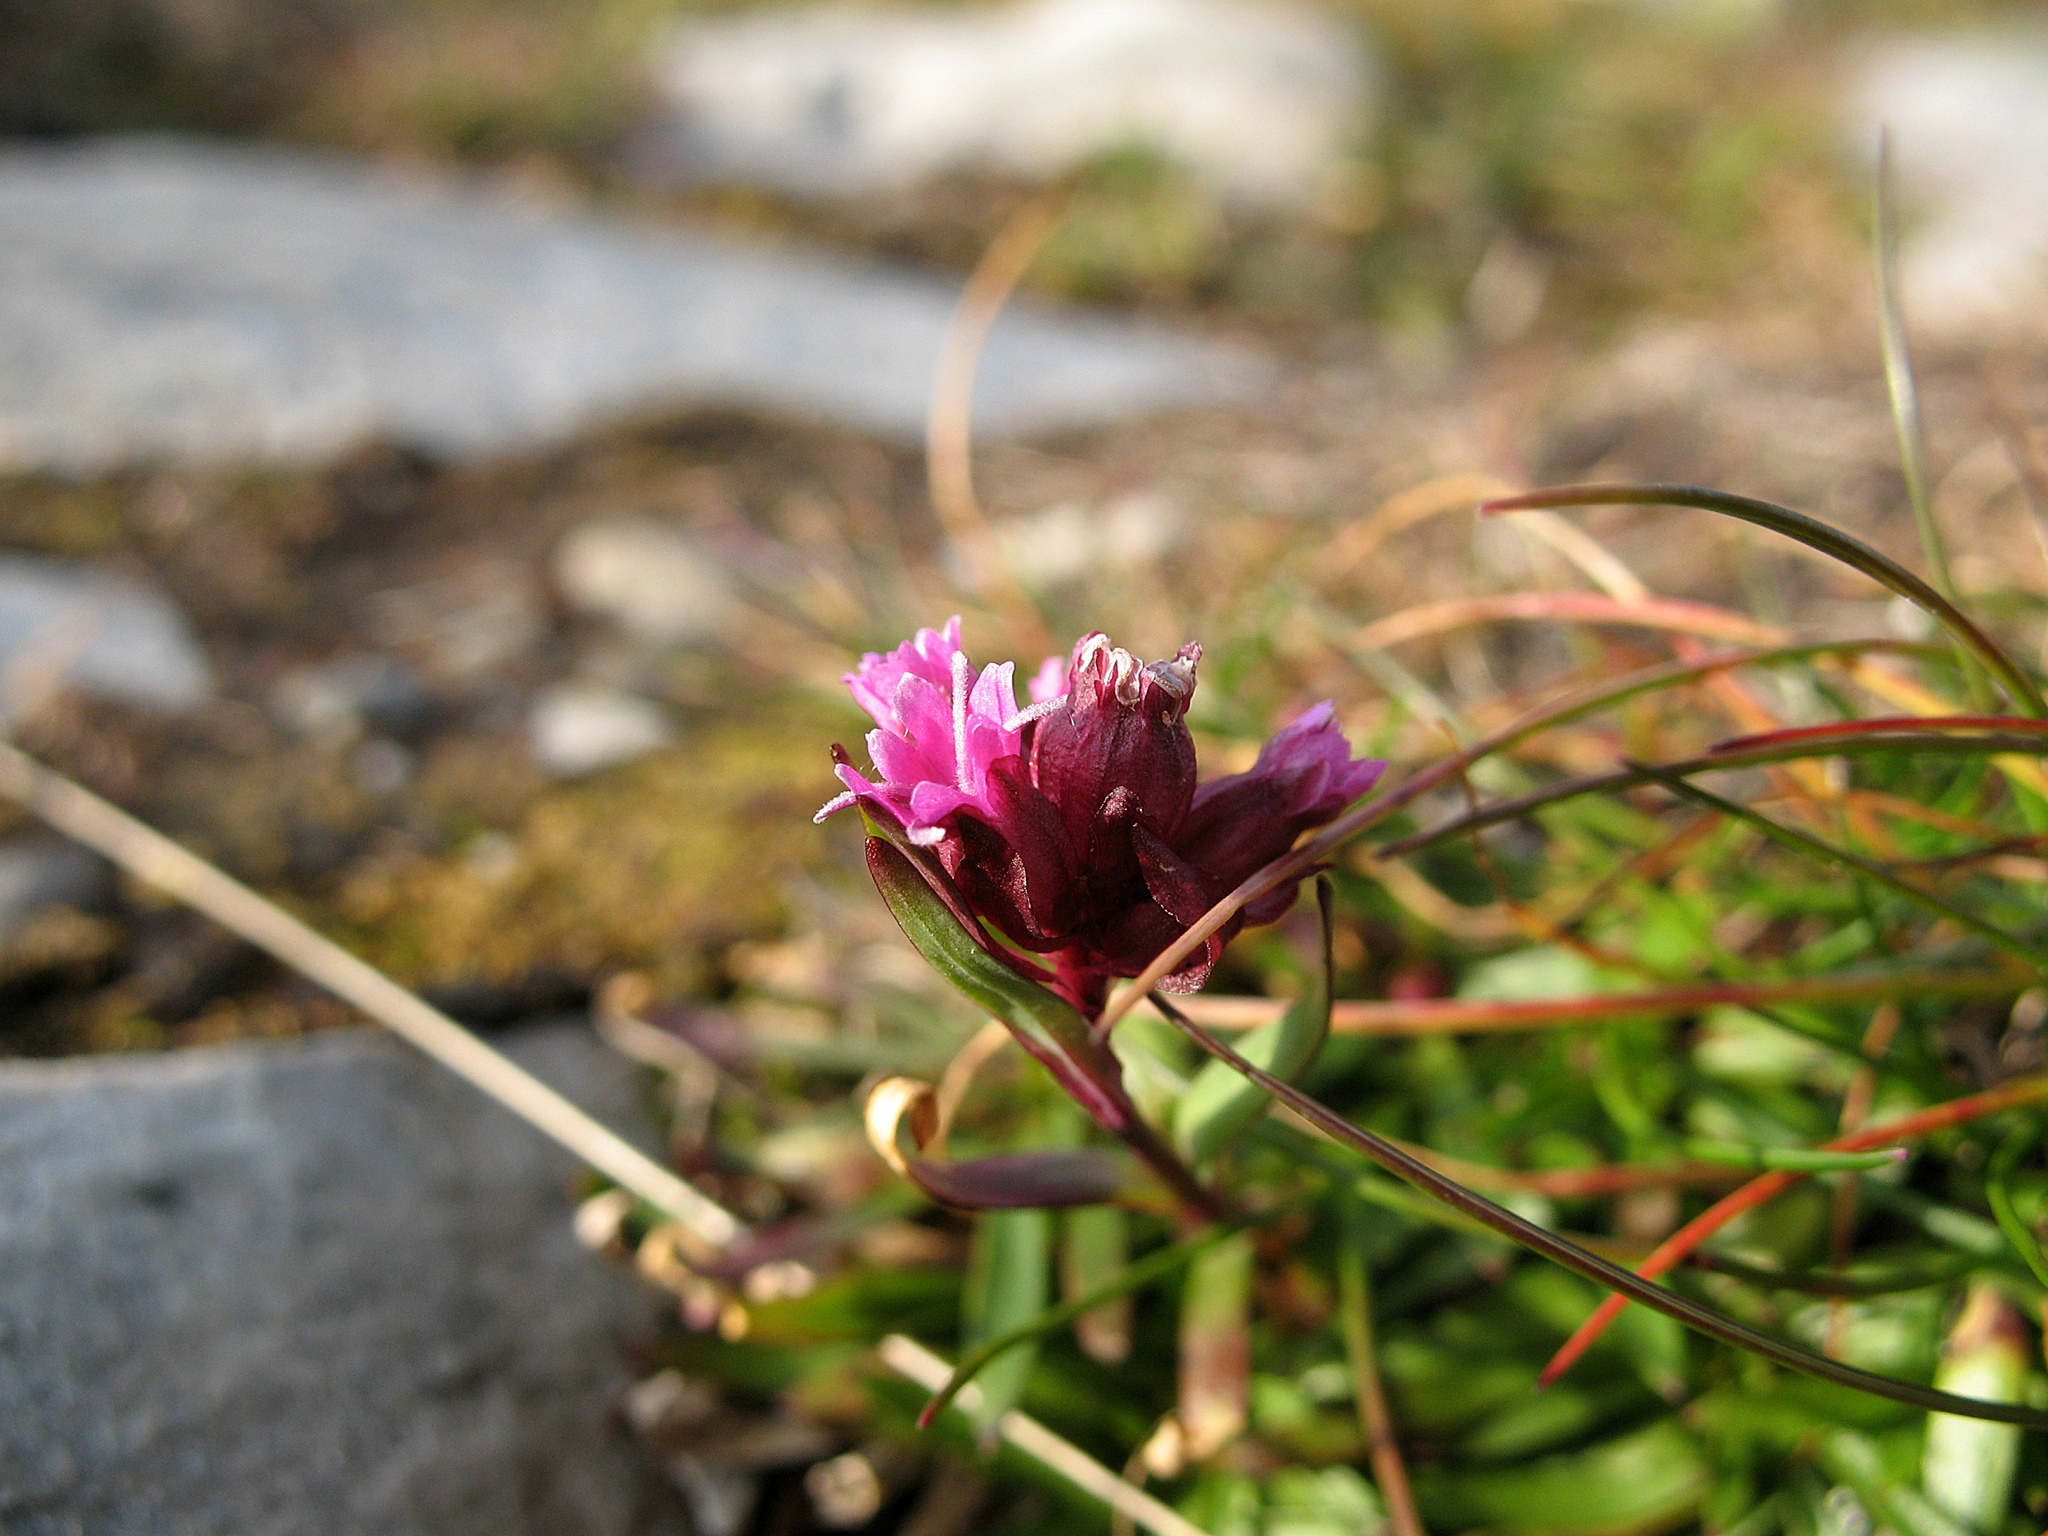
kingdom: Plantae
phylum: Tracheophyta
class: Magnoliopsida
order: Caryophyllales
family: Caryophyllaceae
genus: Viscaria
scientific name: Viscaria alpina
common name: Alpine campion
